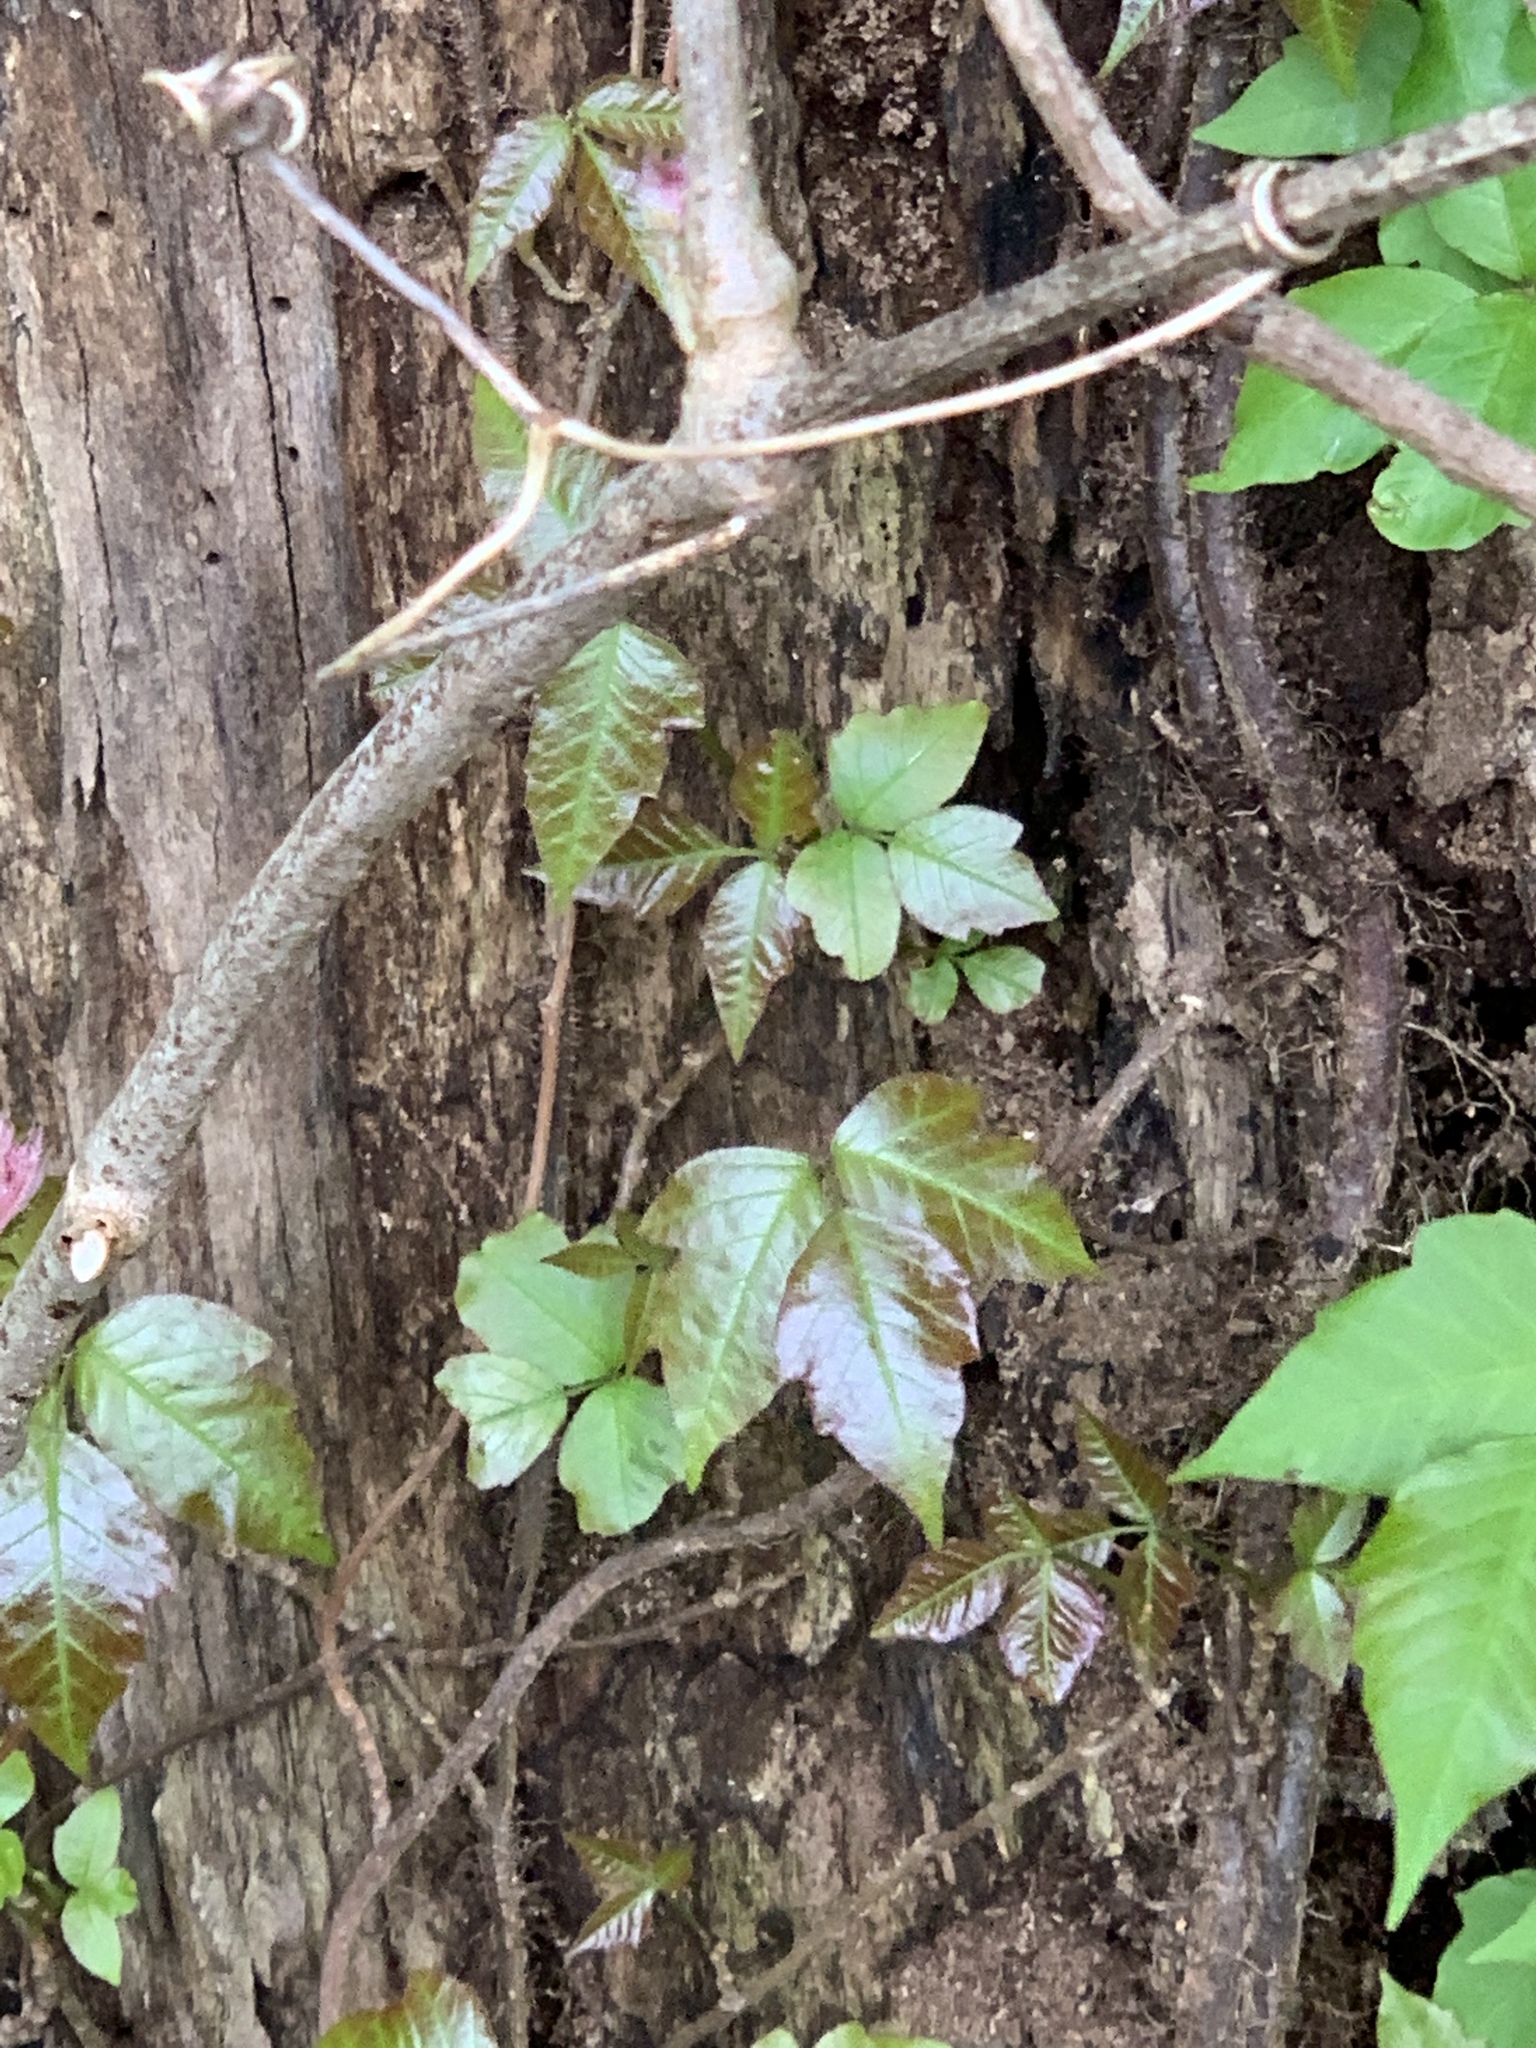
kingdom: Plantae
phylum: Tracheophyta
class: Magnoliopsida
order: Sapindales
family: Anacardiaceae
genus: Toxicodendron
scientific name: Toxicodendron radicans
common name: Poison ivy
